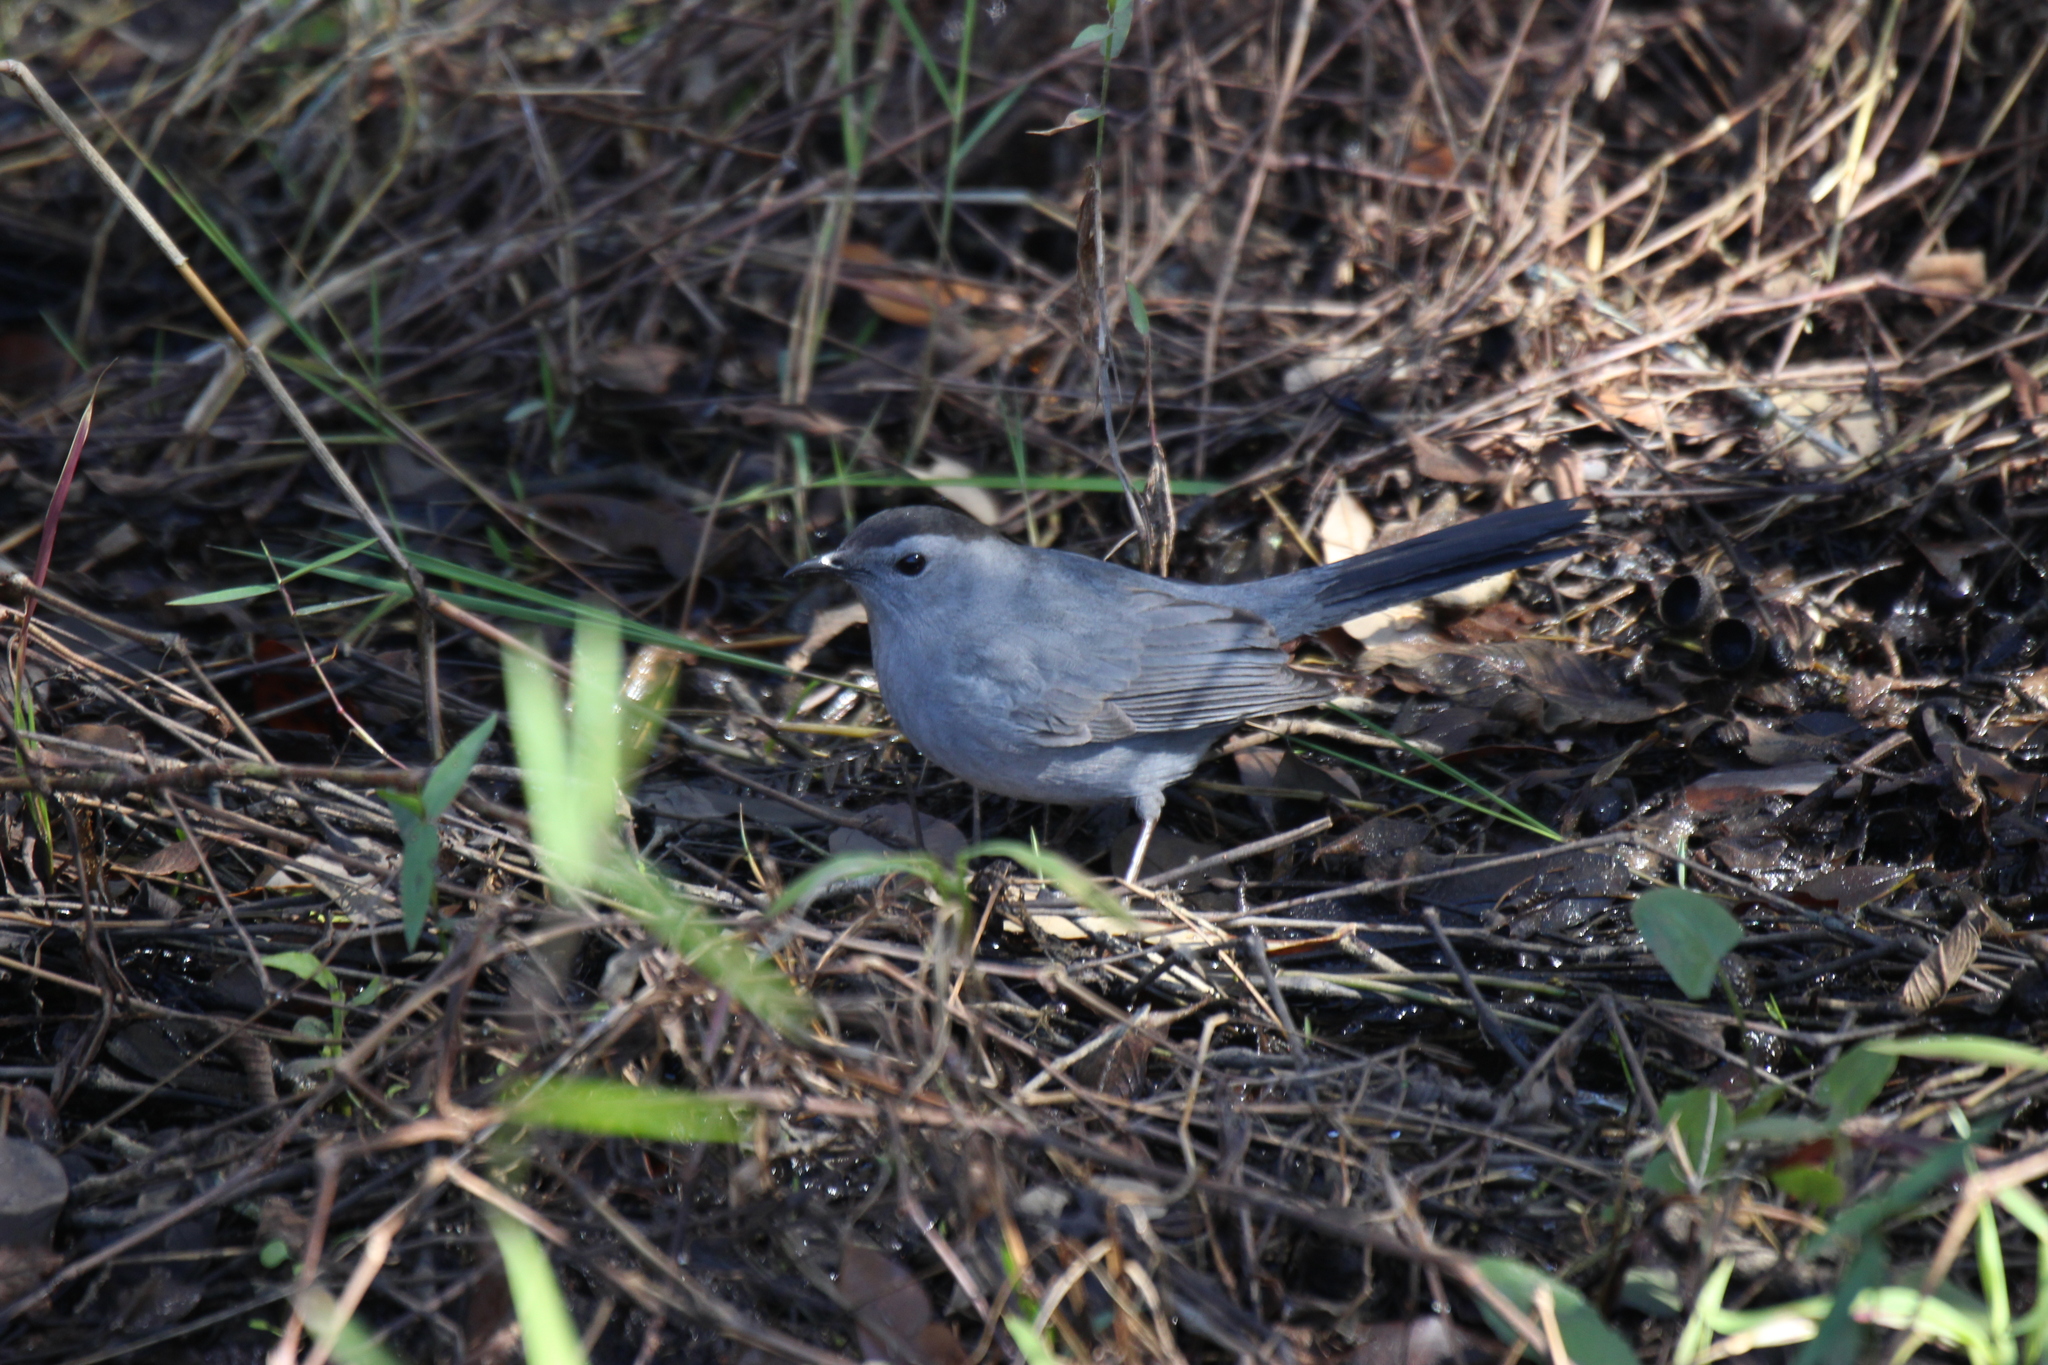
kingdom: Animalia
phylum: Chordata
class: Aves
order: Passeriformes
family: Mimidae
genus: Dumetella
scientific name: Dumetella carolinensis
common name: Gray catbird
